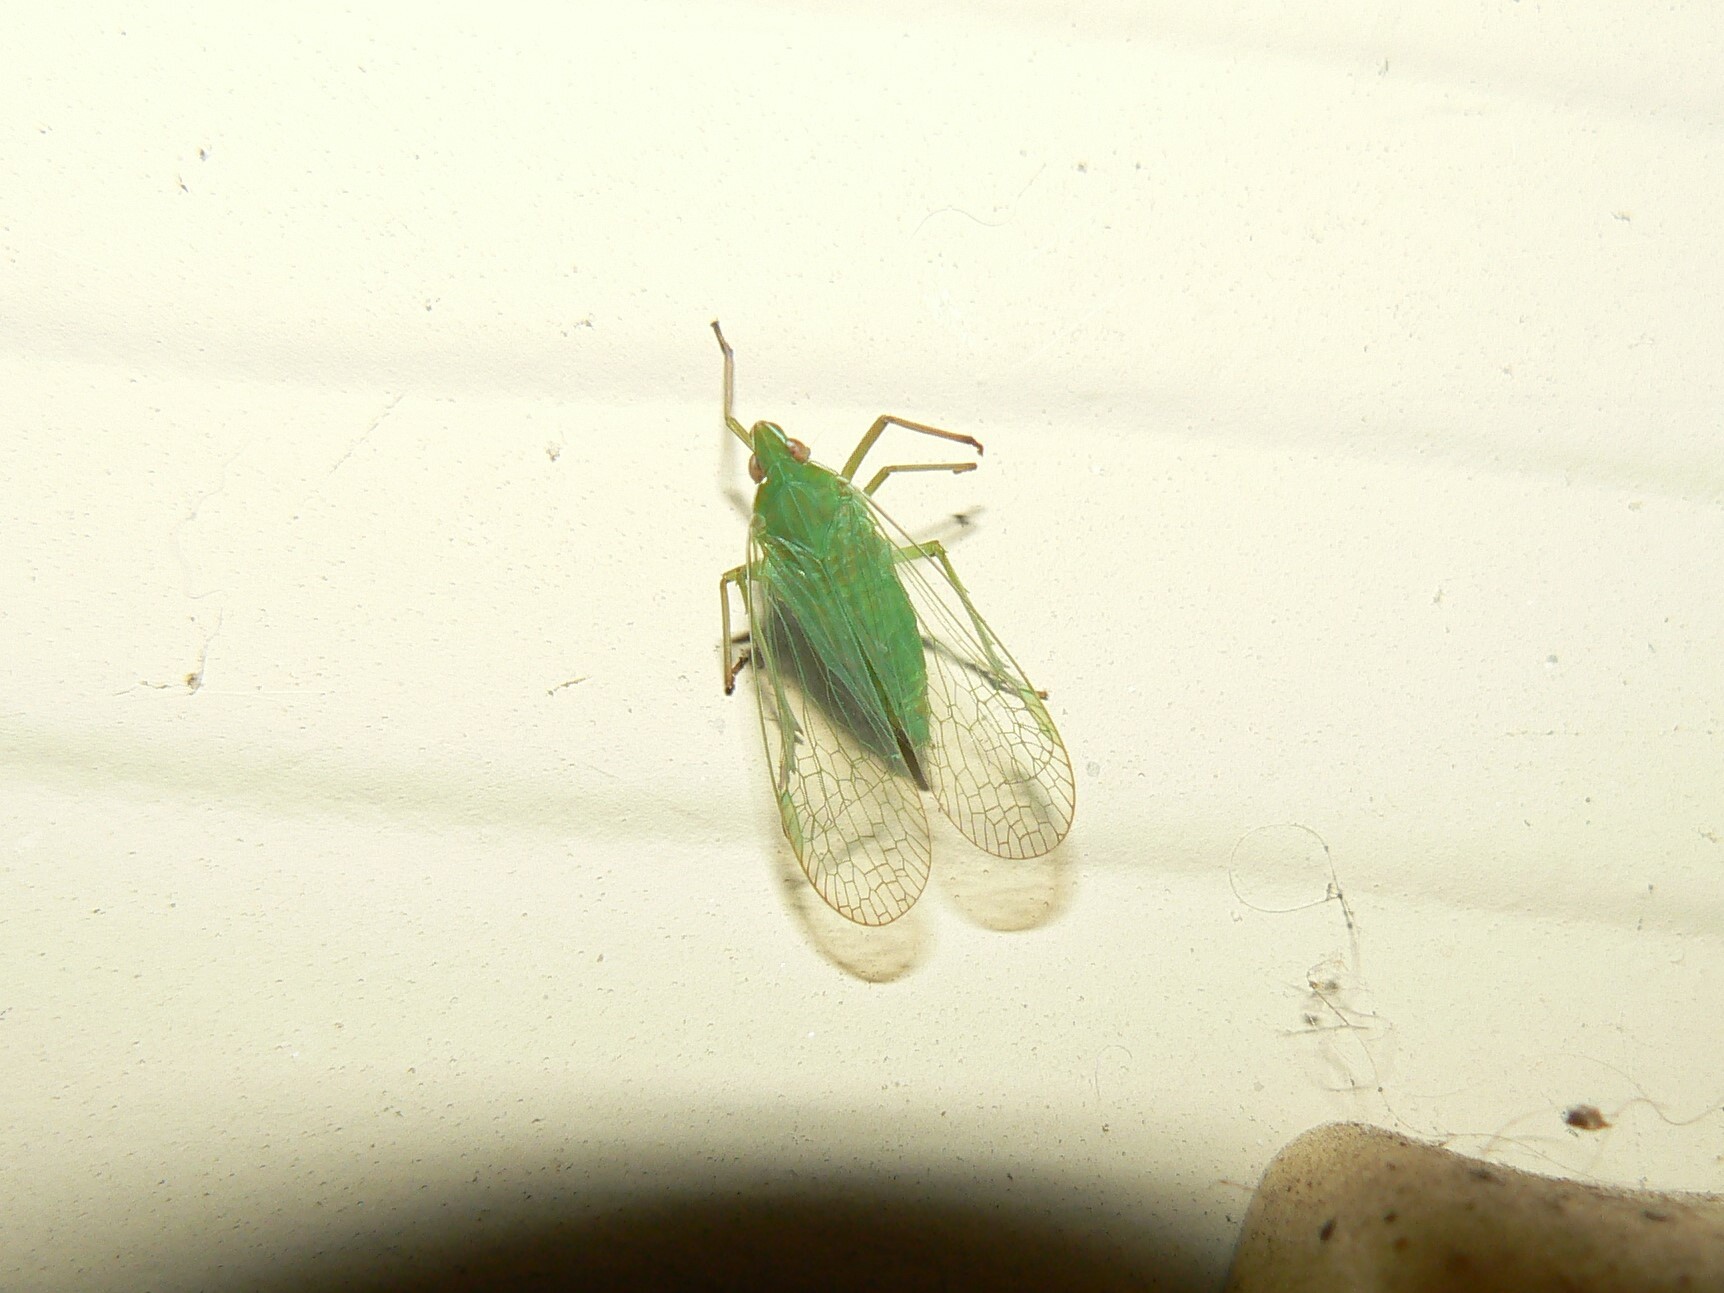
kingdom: Animalia
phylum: Arthropoda
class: Insecta
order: Hemiptera
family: Dictyopharidae
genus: Nersia
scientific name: Nersia florida
